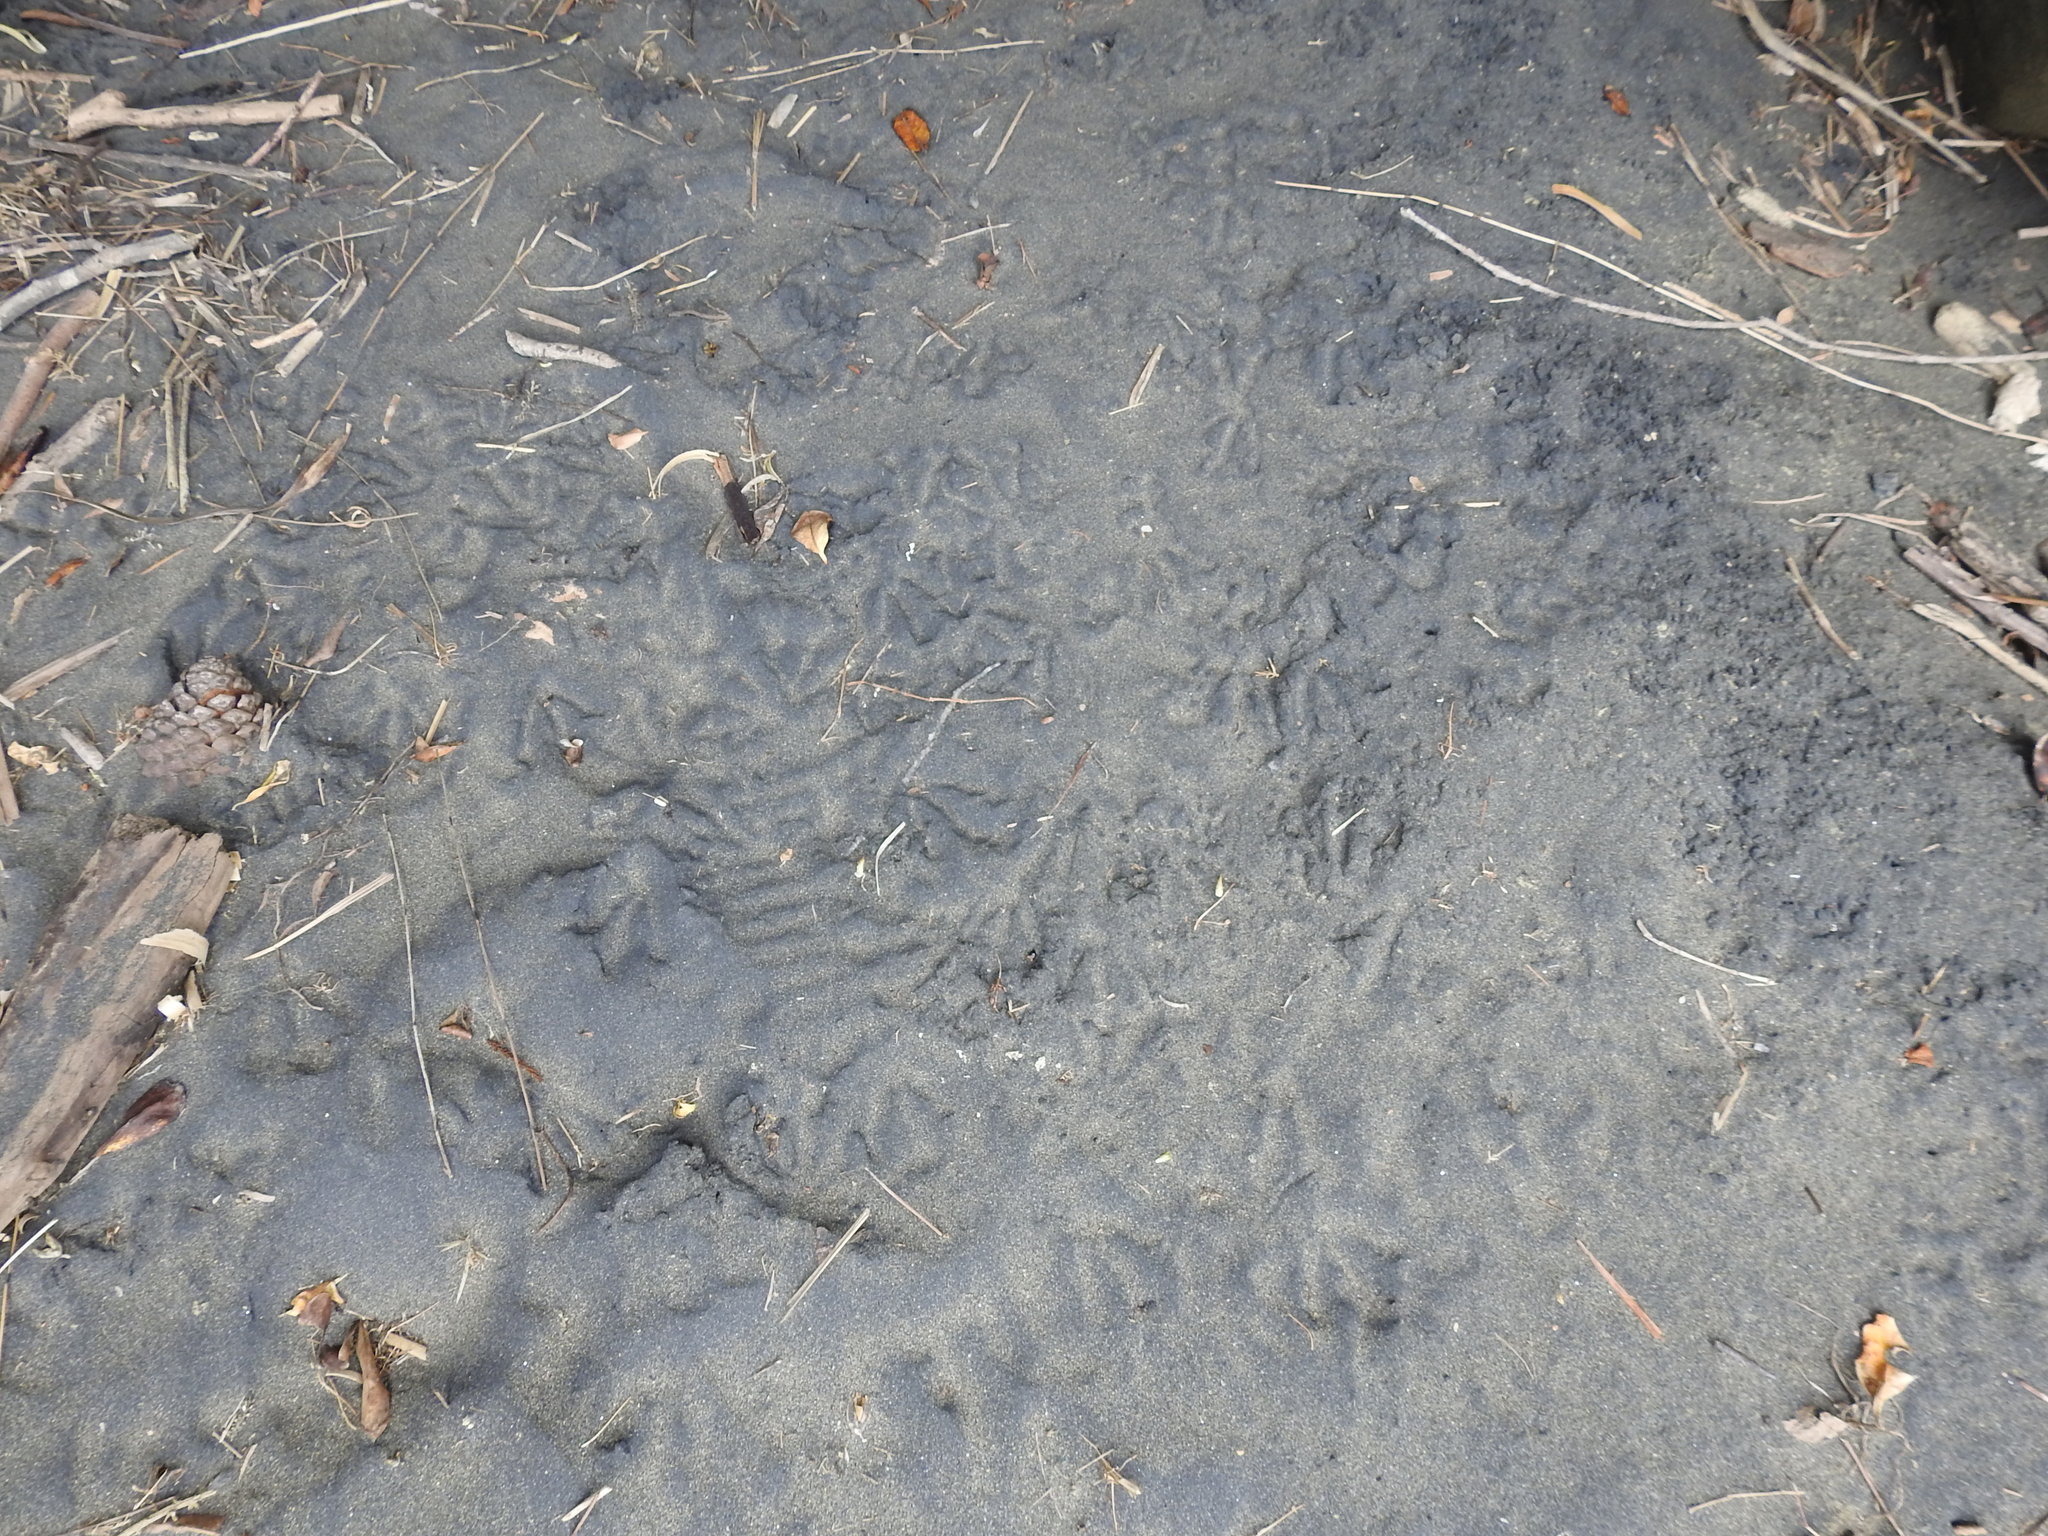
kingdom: Animalia
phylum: Chordata
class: Aves
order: Sphenisciformes
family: Spheniscidae
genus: Eudyptula
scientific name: Eudyptula minor
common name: Little penguin
